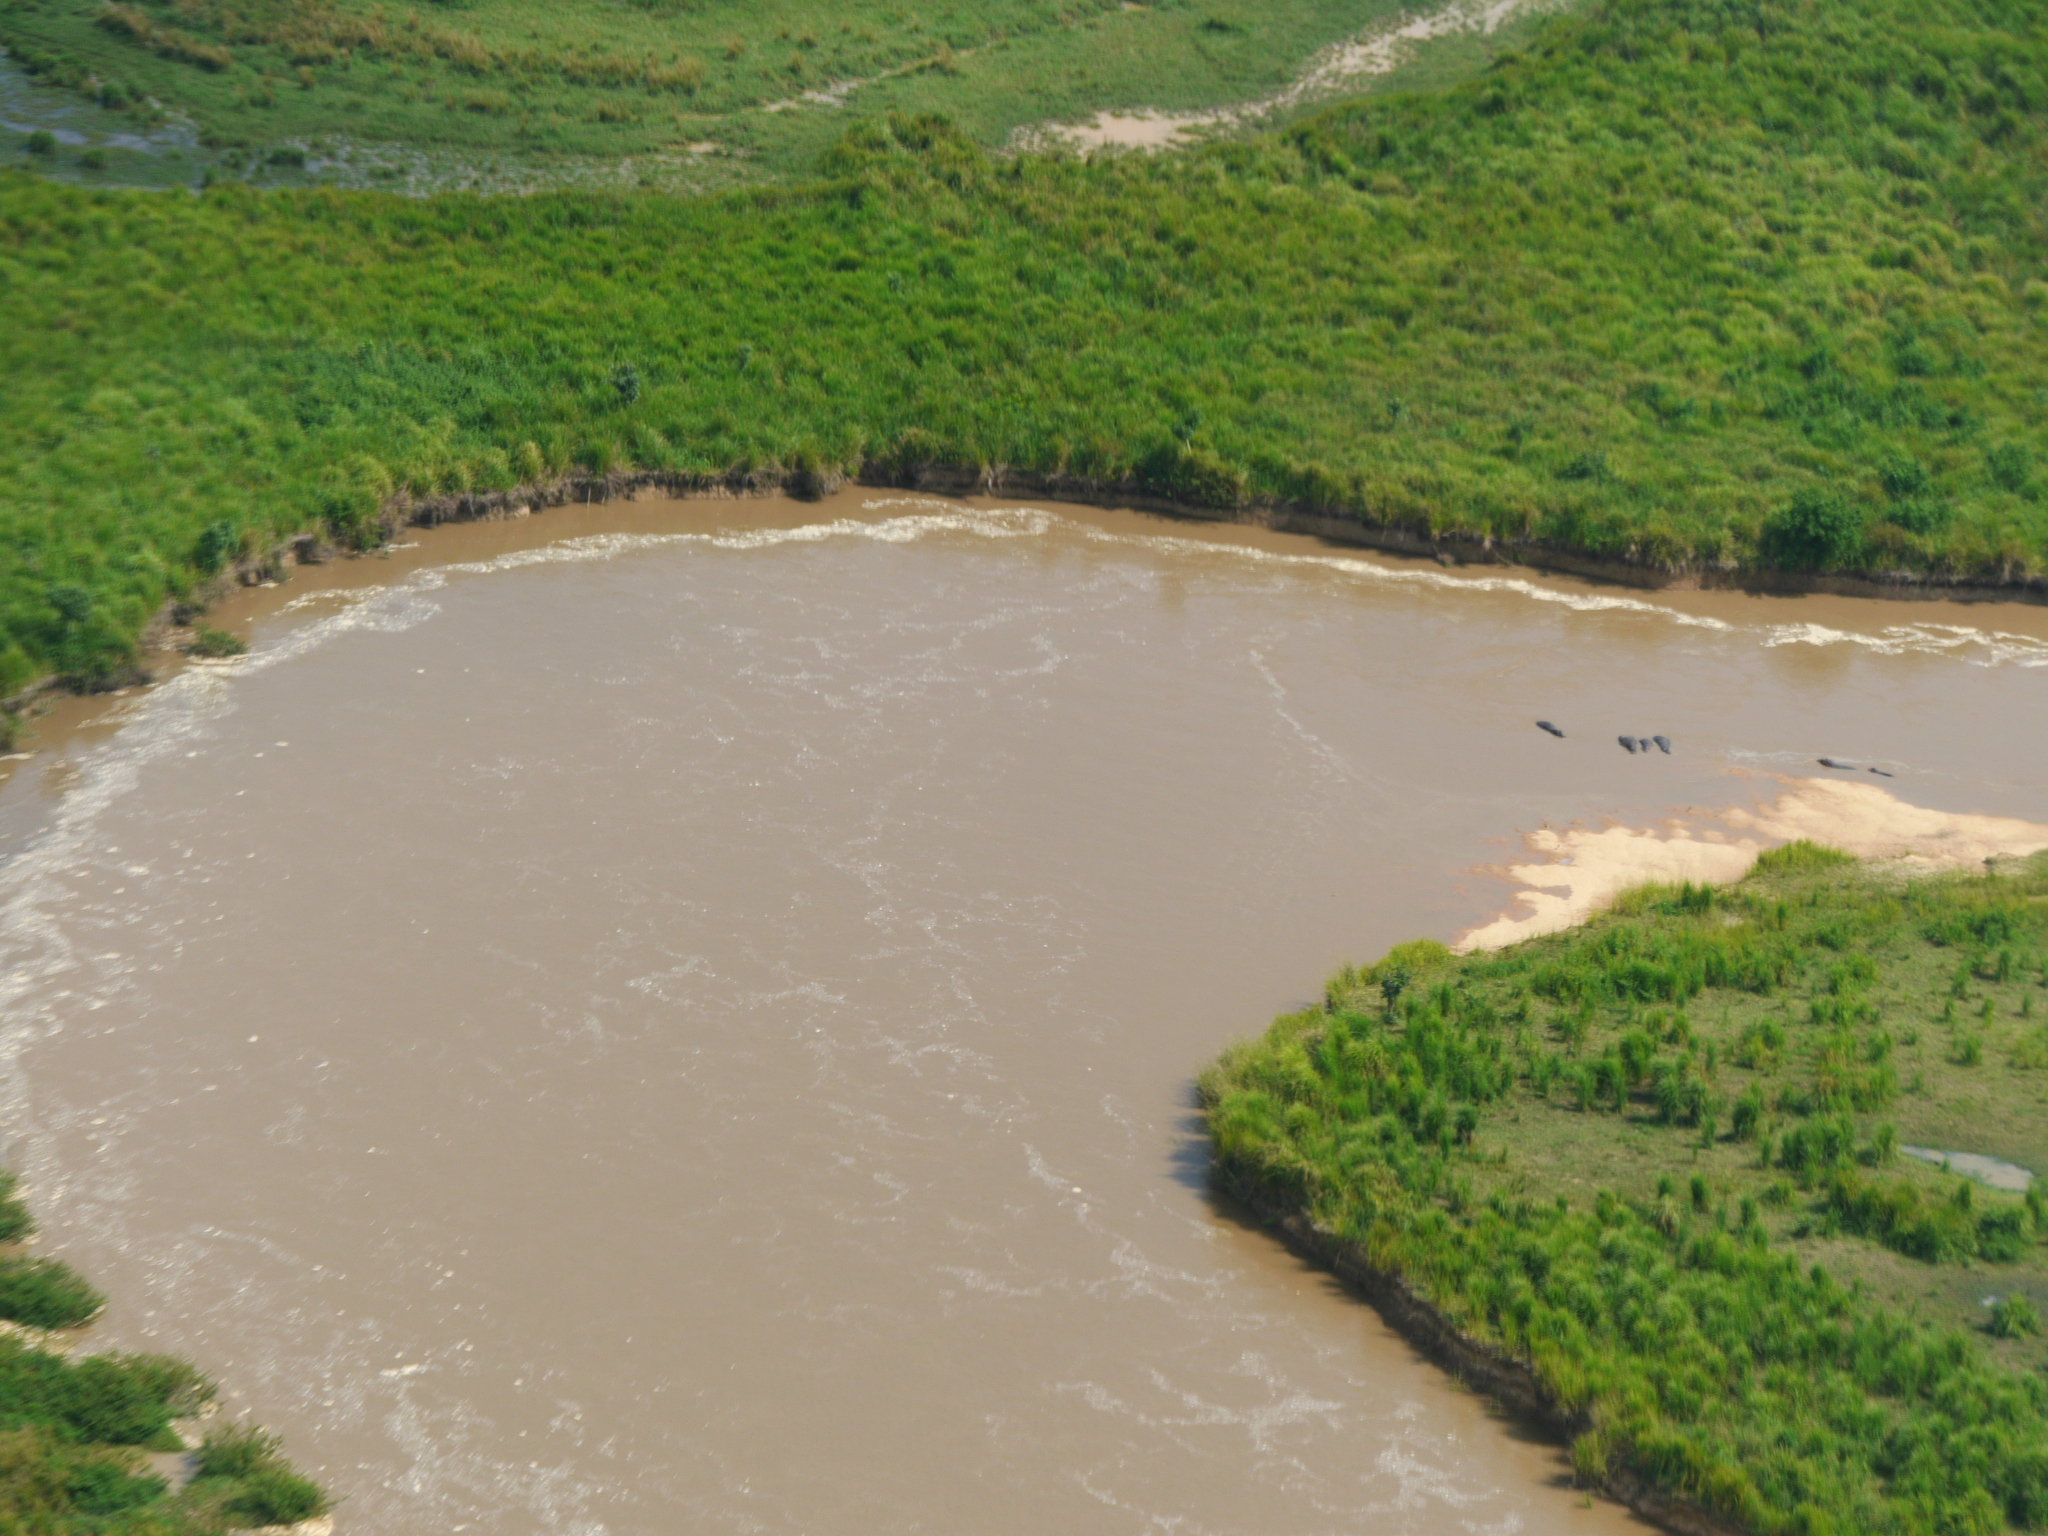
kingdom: Animalia
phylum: Chordata
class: Mammalia
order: Artiodactyla
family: Hippopotamidae
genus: Hippopotamus
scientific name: Hippopotamus amphibius
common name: Common hippopotamus
